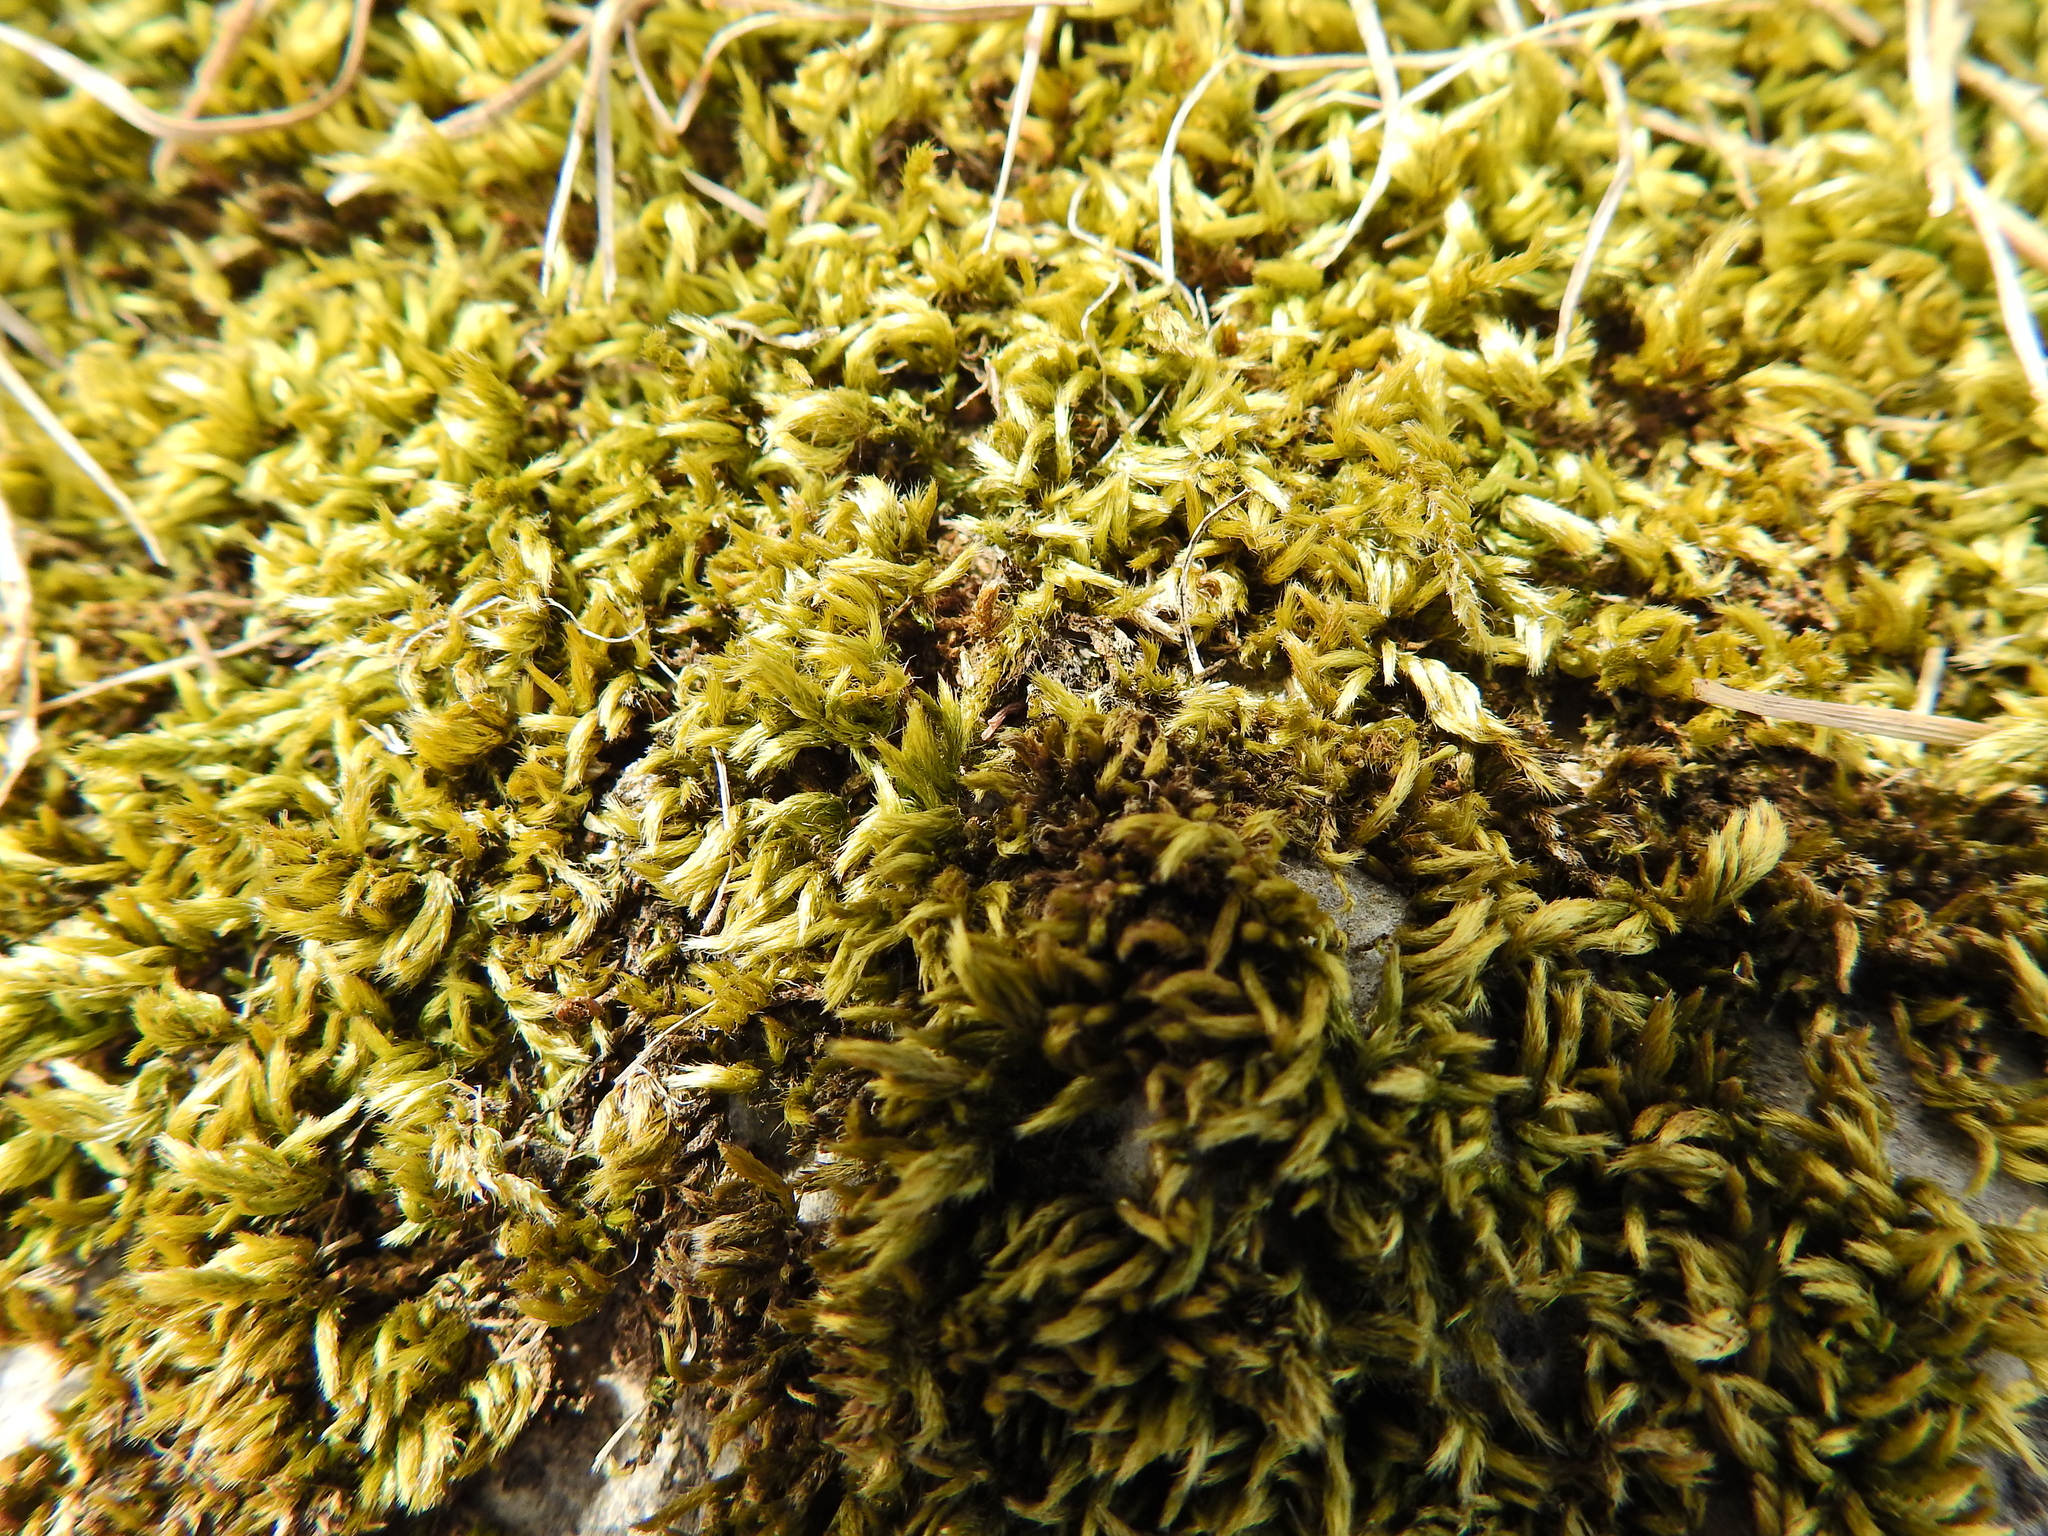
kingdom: Plantae
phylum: Bryophyta
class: Bryopsida
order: Hypnales
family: Brachytheciaceae
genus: Homalothecium
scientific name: Homalothecium sericeum
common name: Silky wall feather-moss
